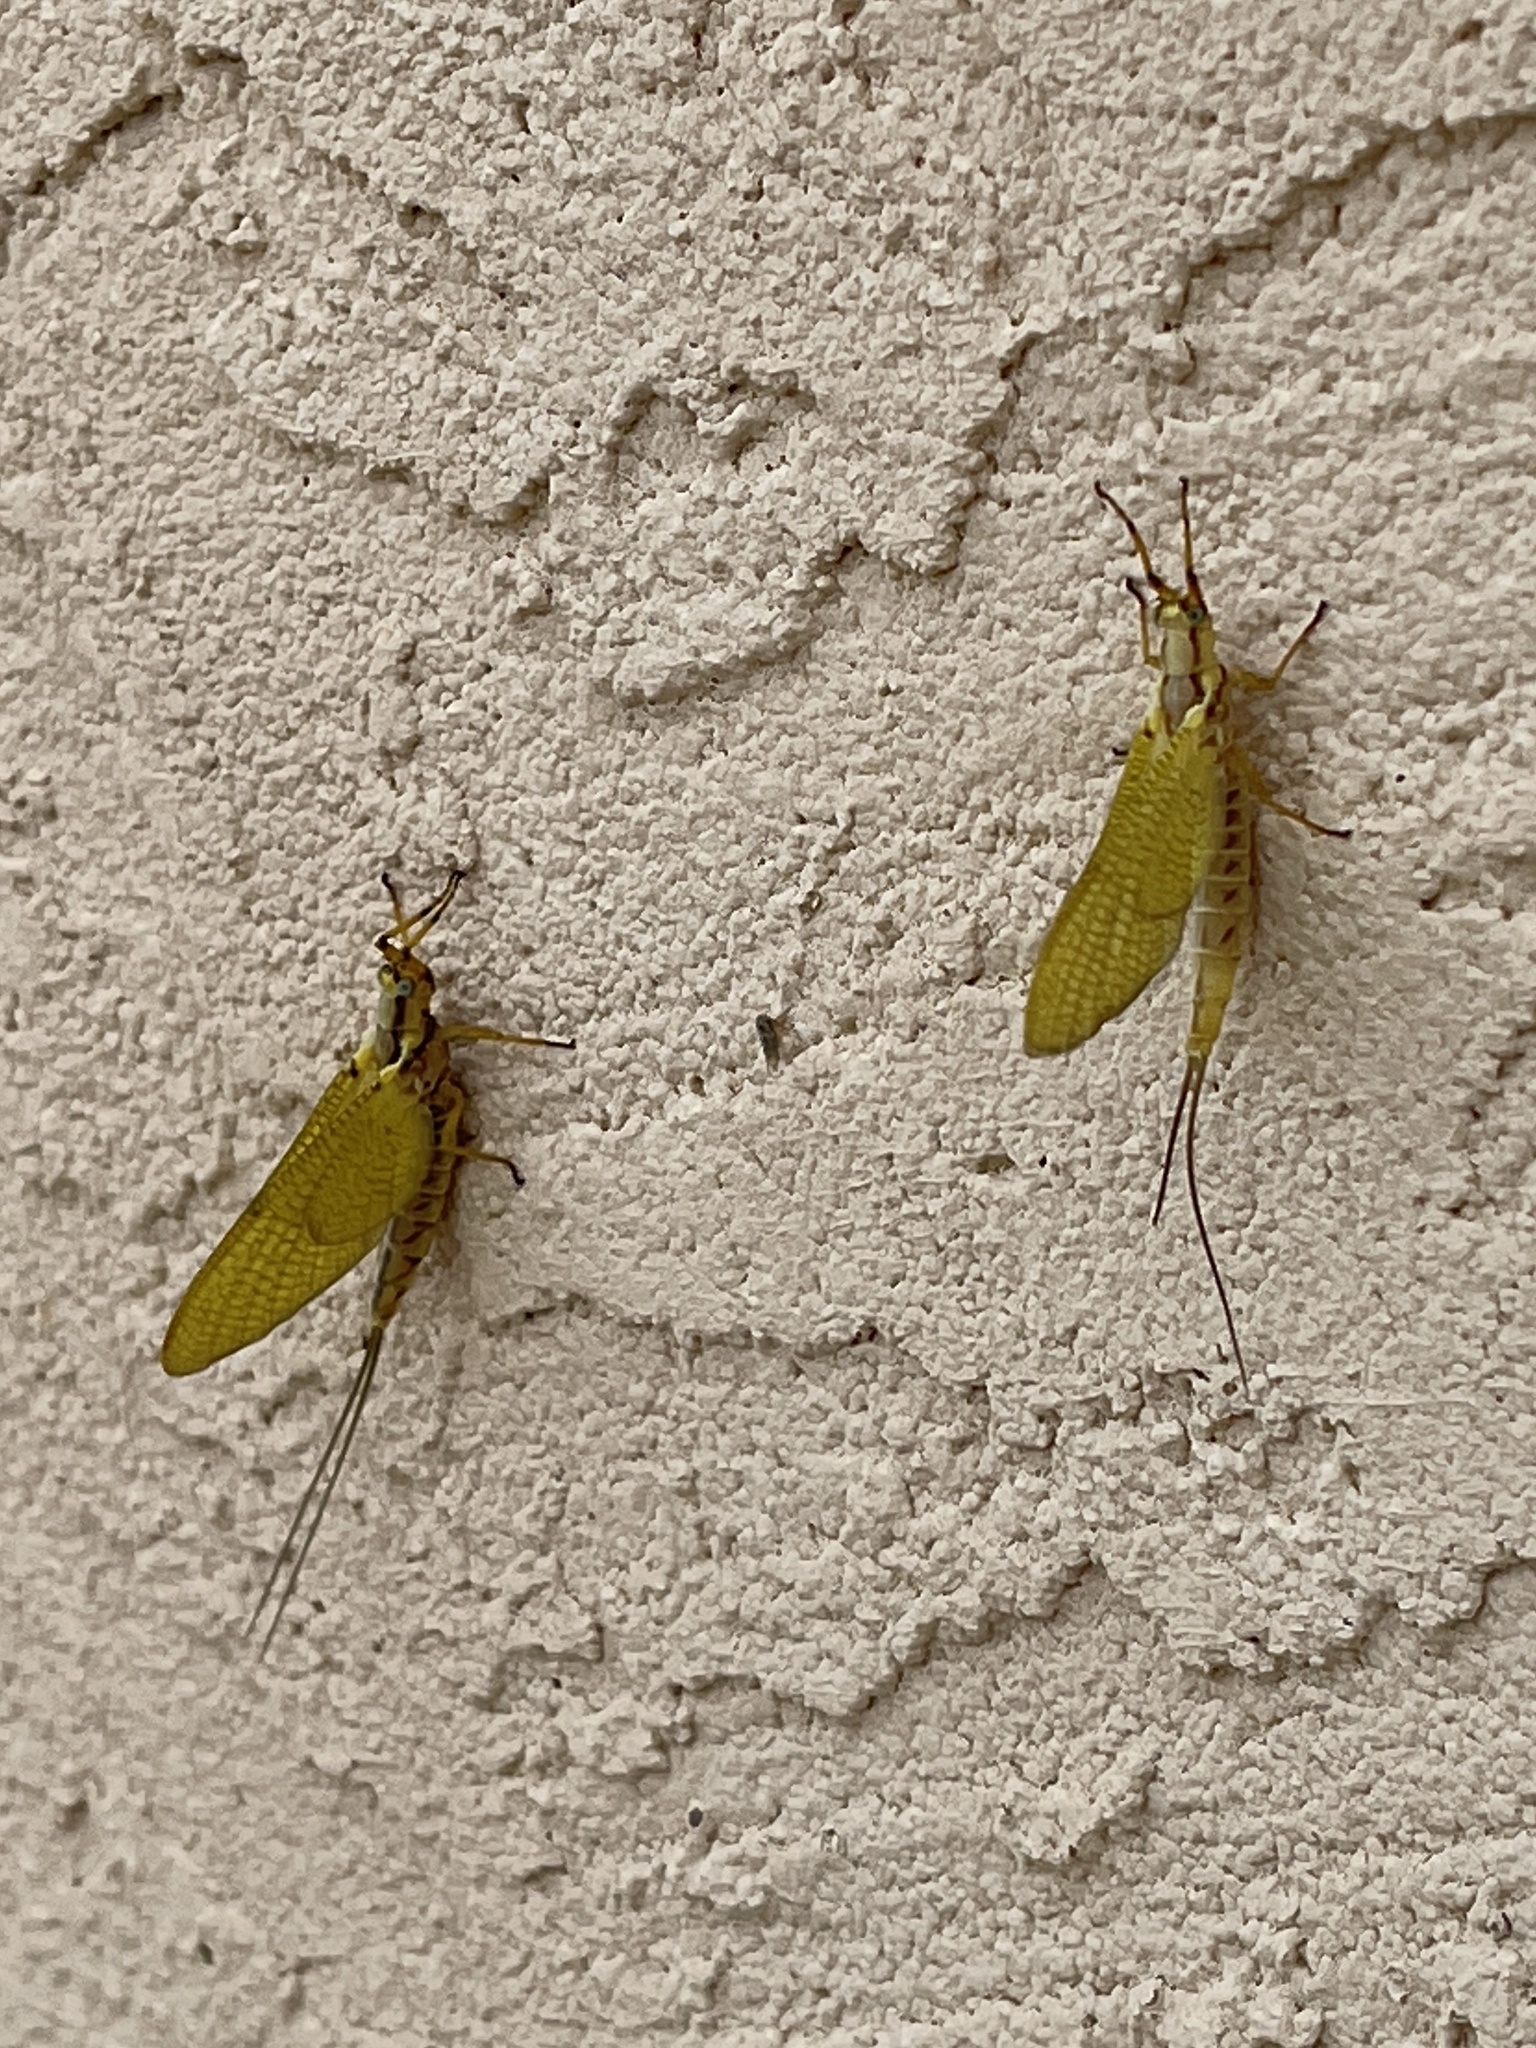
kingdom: Animalia
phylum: Arthropoda
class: Insecta
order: Ephemeroptera
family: Ephemeridae
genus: Hexagenia
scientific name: Hexagenia limbata
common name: Giant mayfly
